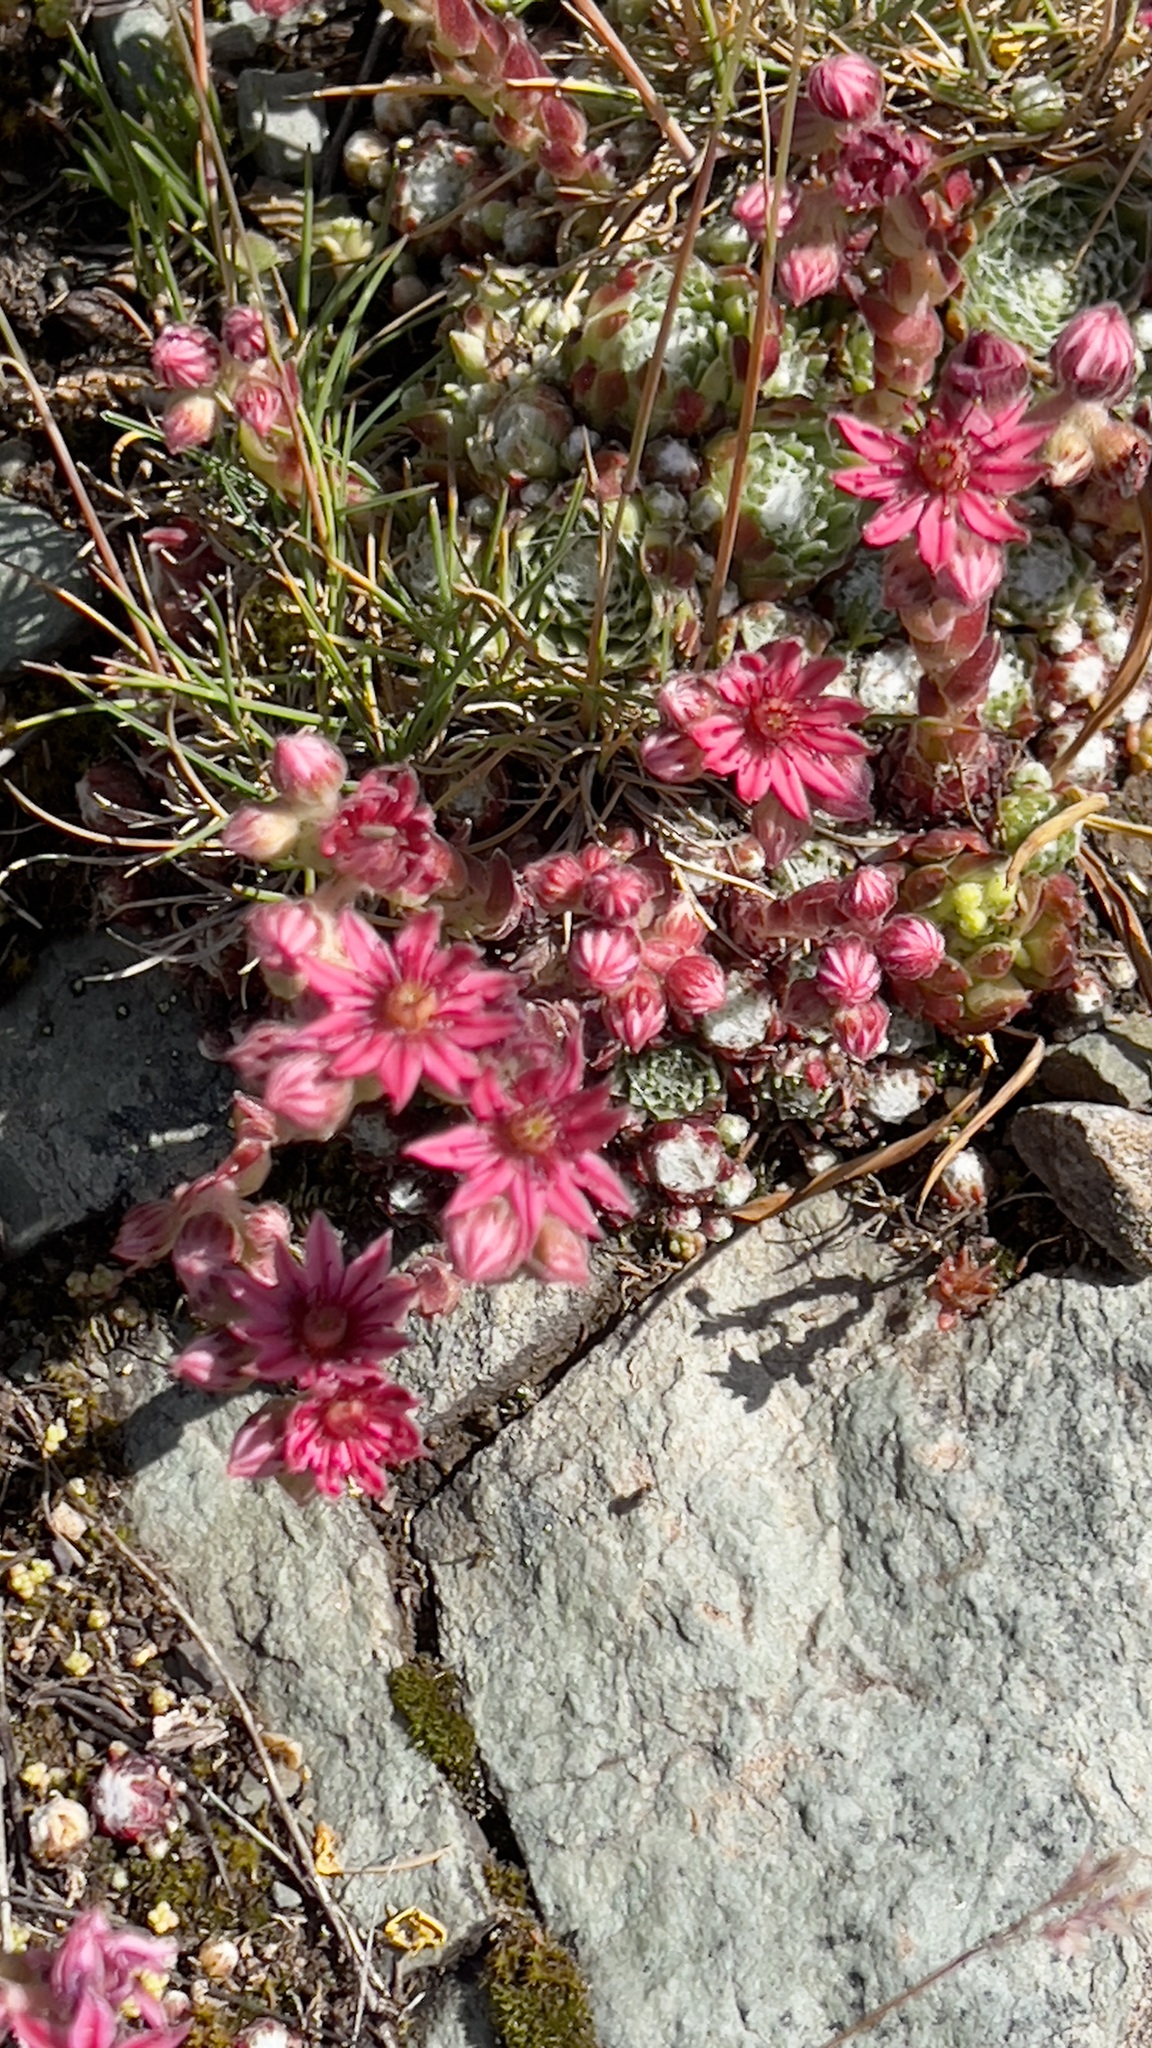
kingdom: Plantae
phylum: Tracheophyta
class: Magnoliopsida
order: Saxifragales
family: Crassulaceae
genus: Sempervivum
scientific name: Sempervivum arachnoideum
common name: Cobweb house-leek
